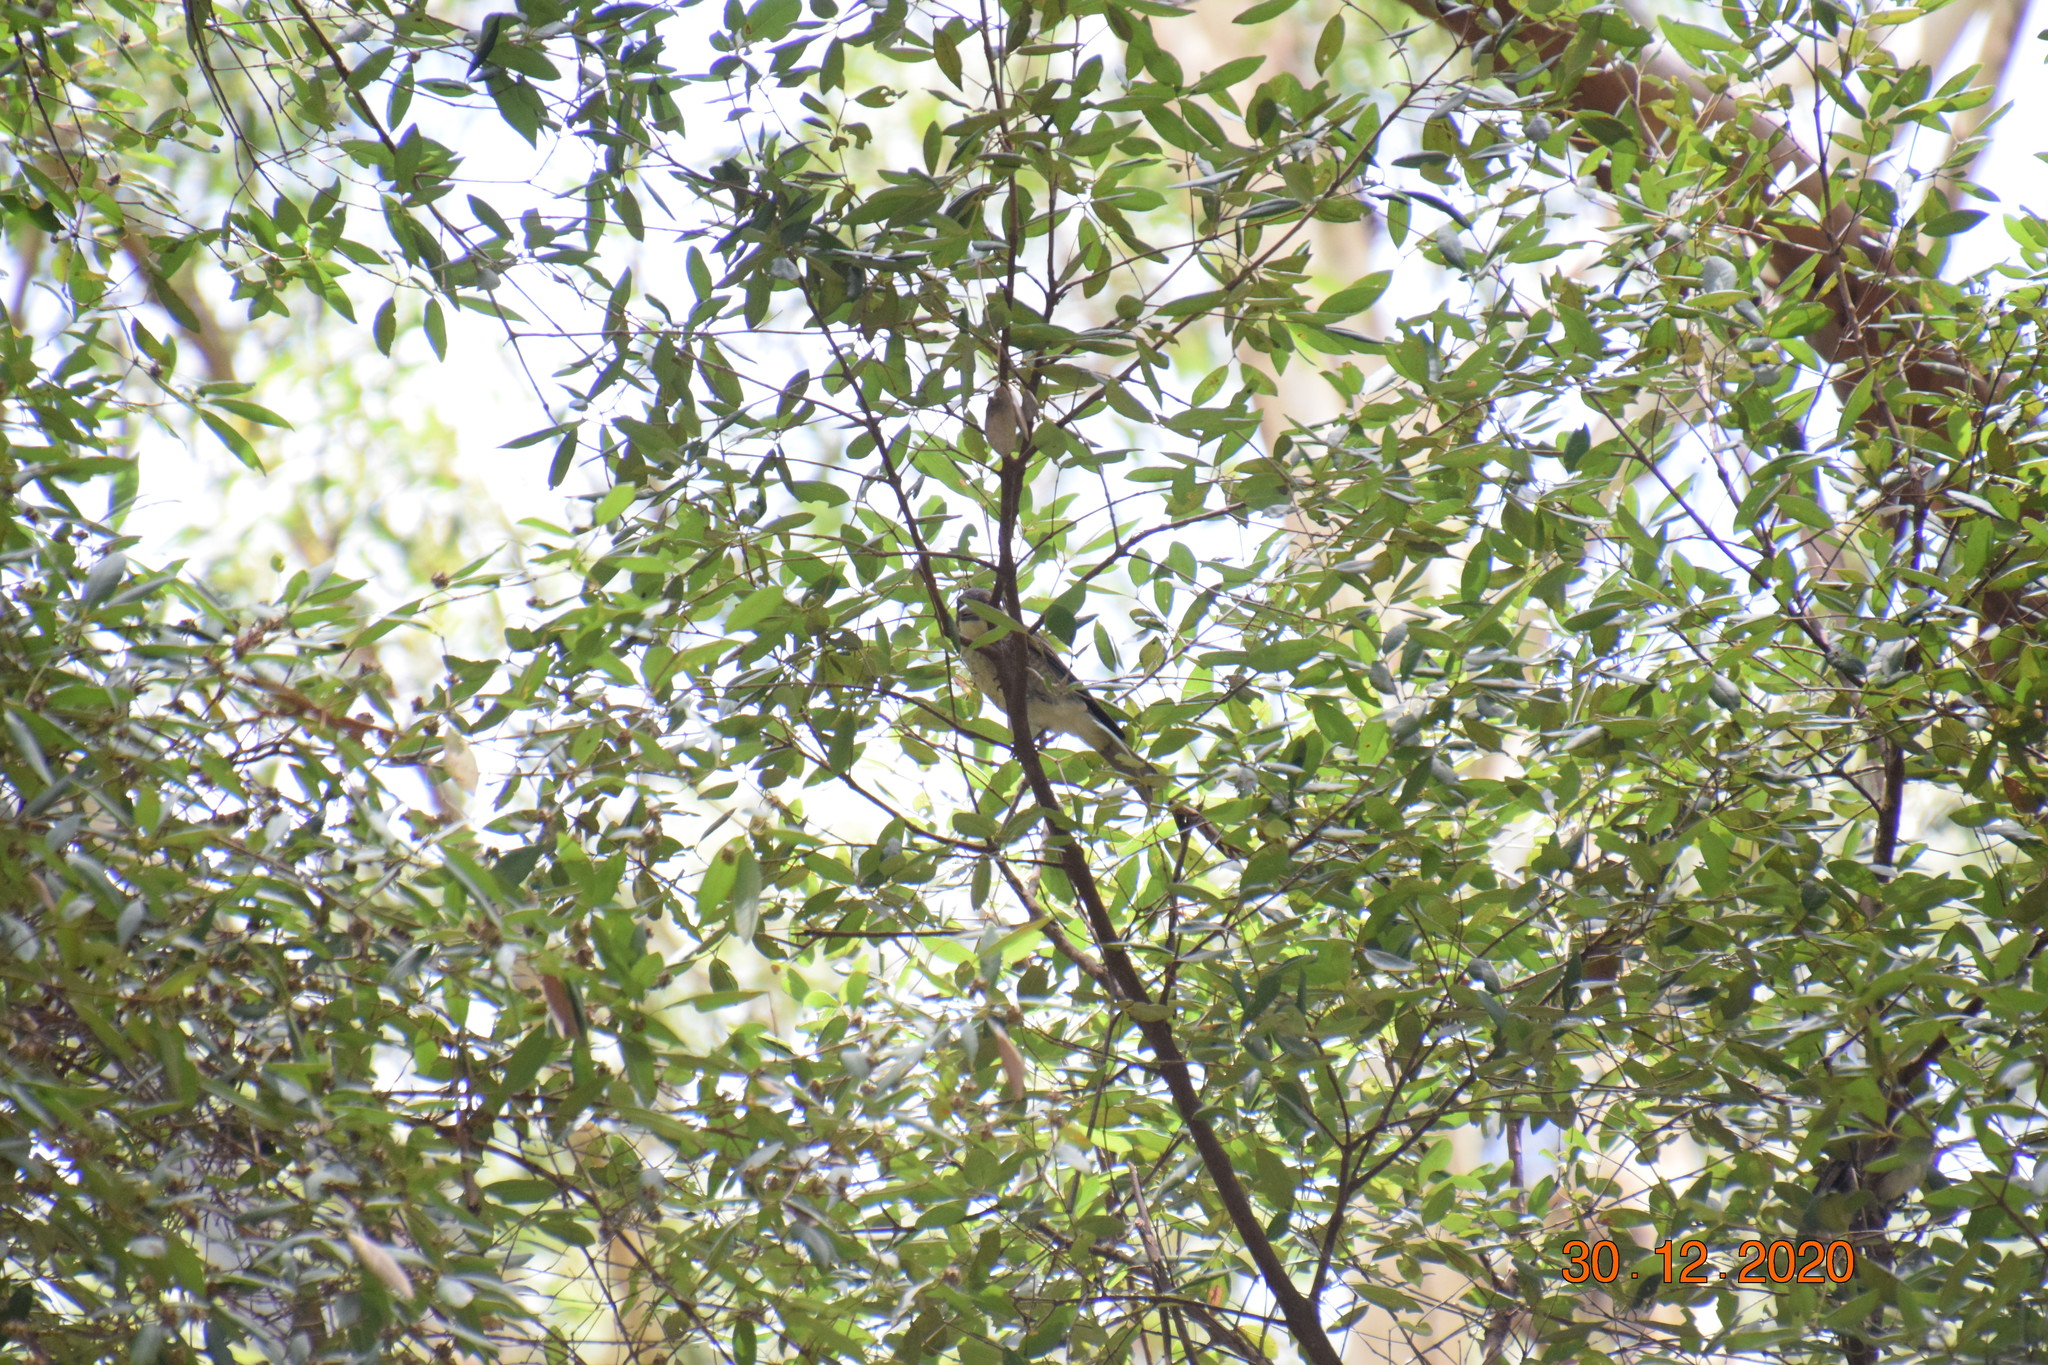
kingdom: Animalia
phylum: Chordata
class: Aves
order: Passeriformes
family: Cracticidae
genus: Cracticus
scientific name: Cracticus torquatus
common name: Grey butcherbird
